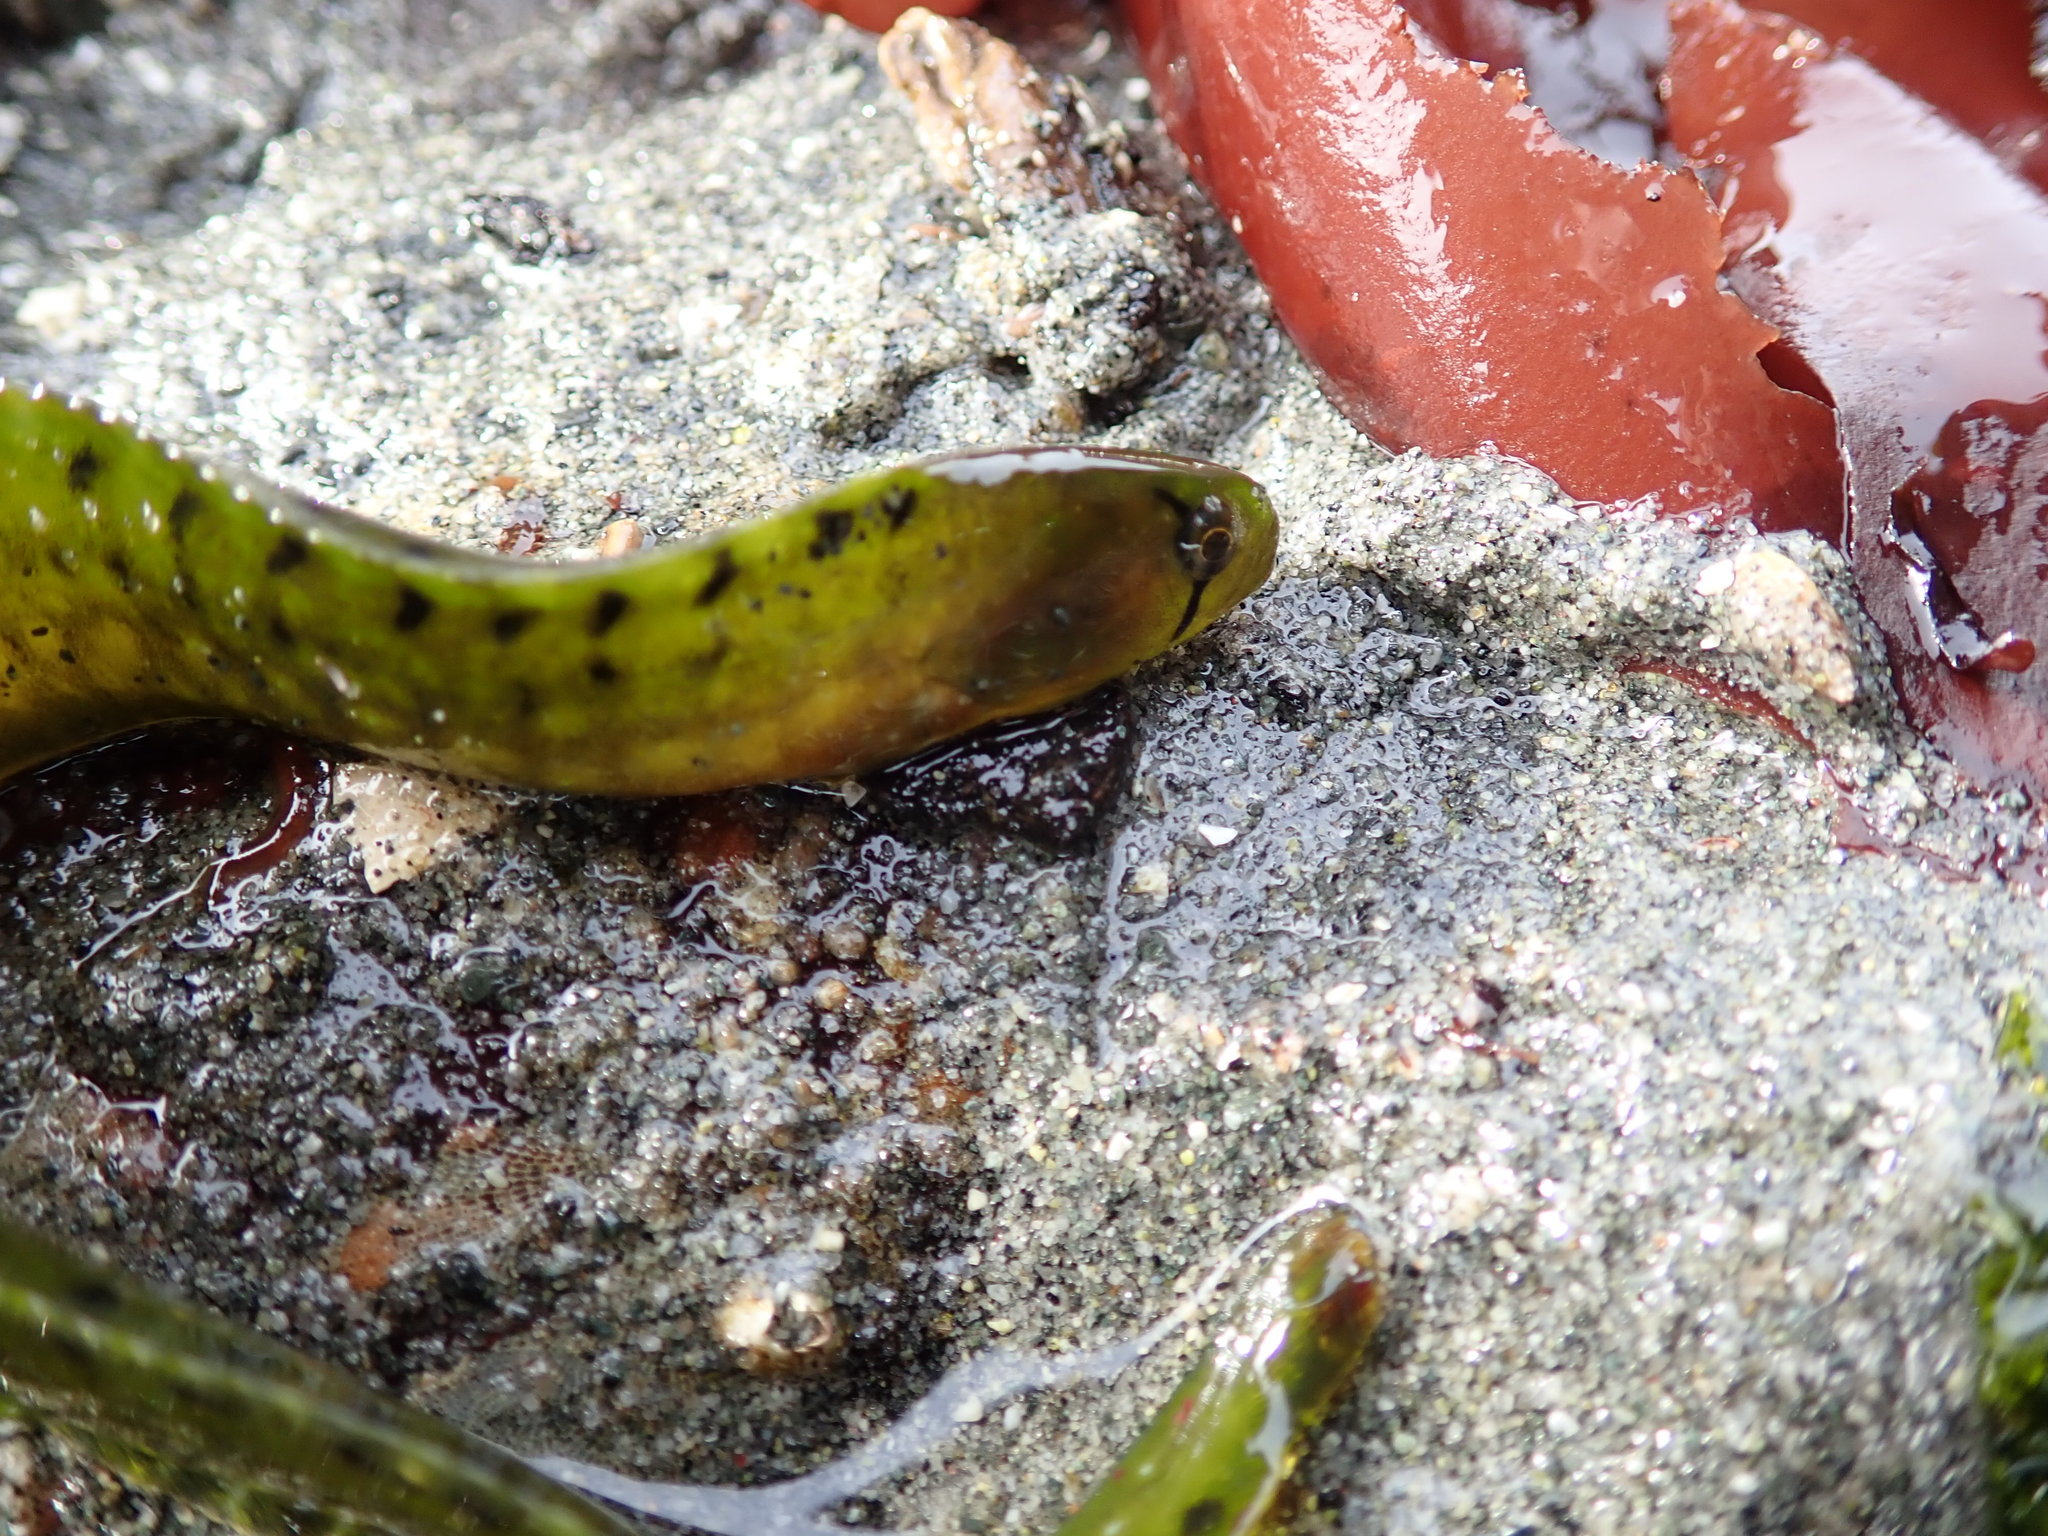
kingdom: Animalia
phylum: Chordata
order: Perciformes
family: Pholidae
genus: Apodichthys
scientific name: Apodichthys flavidus
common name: Penpoint gunnel
